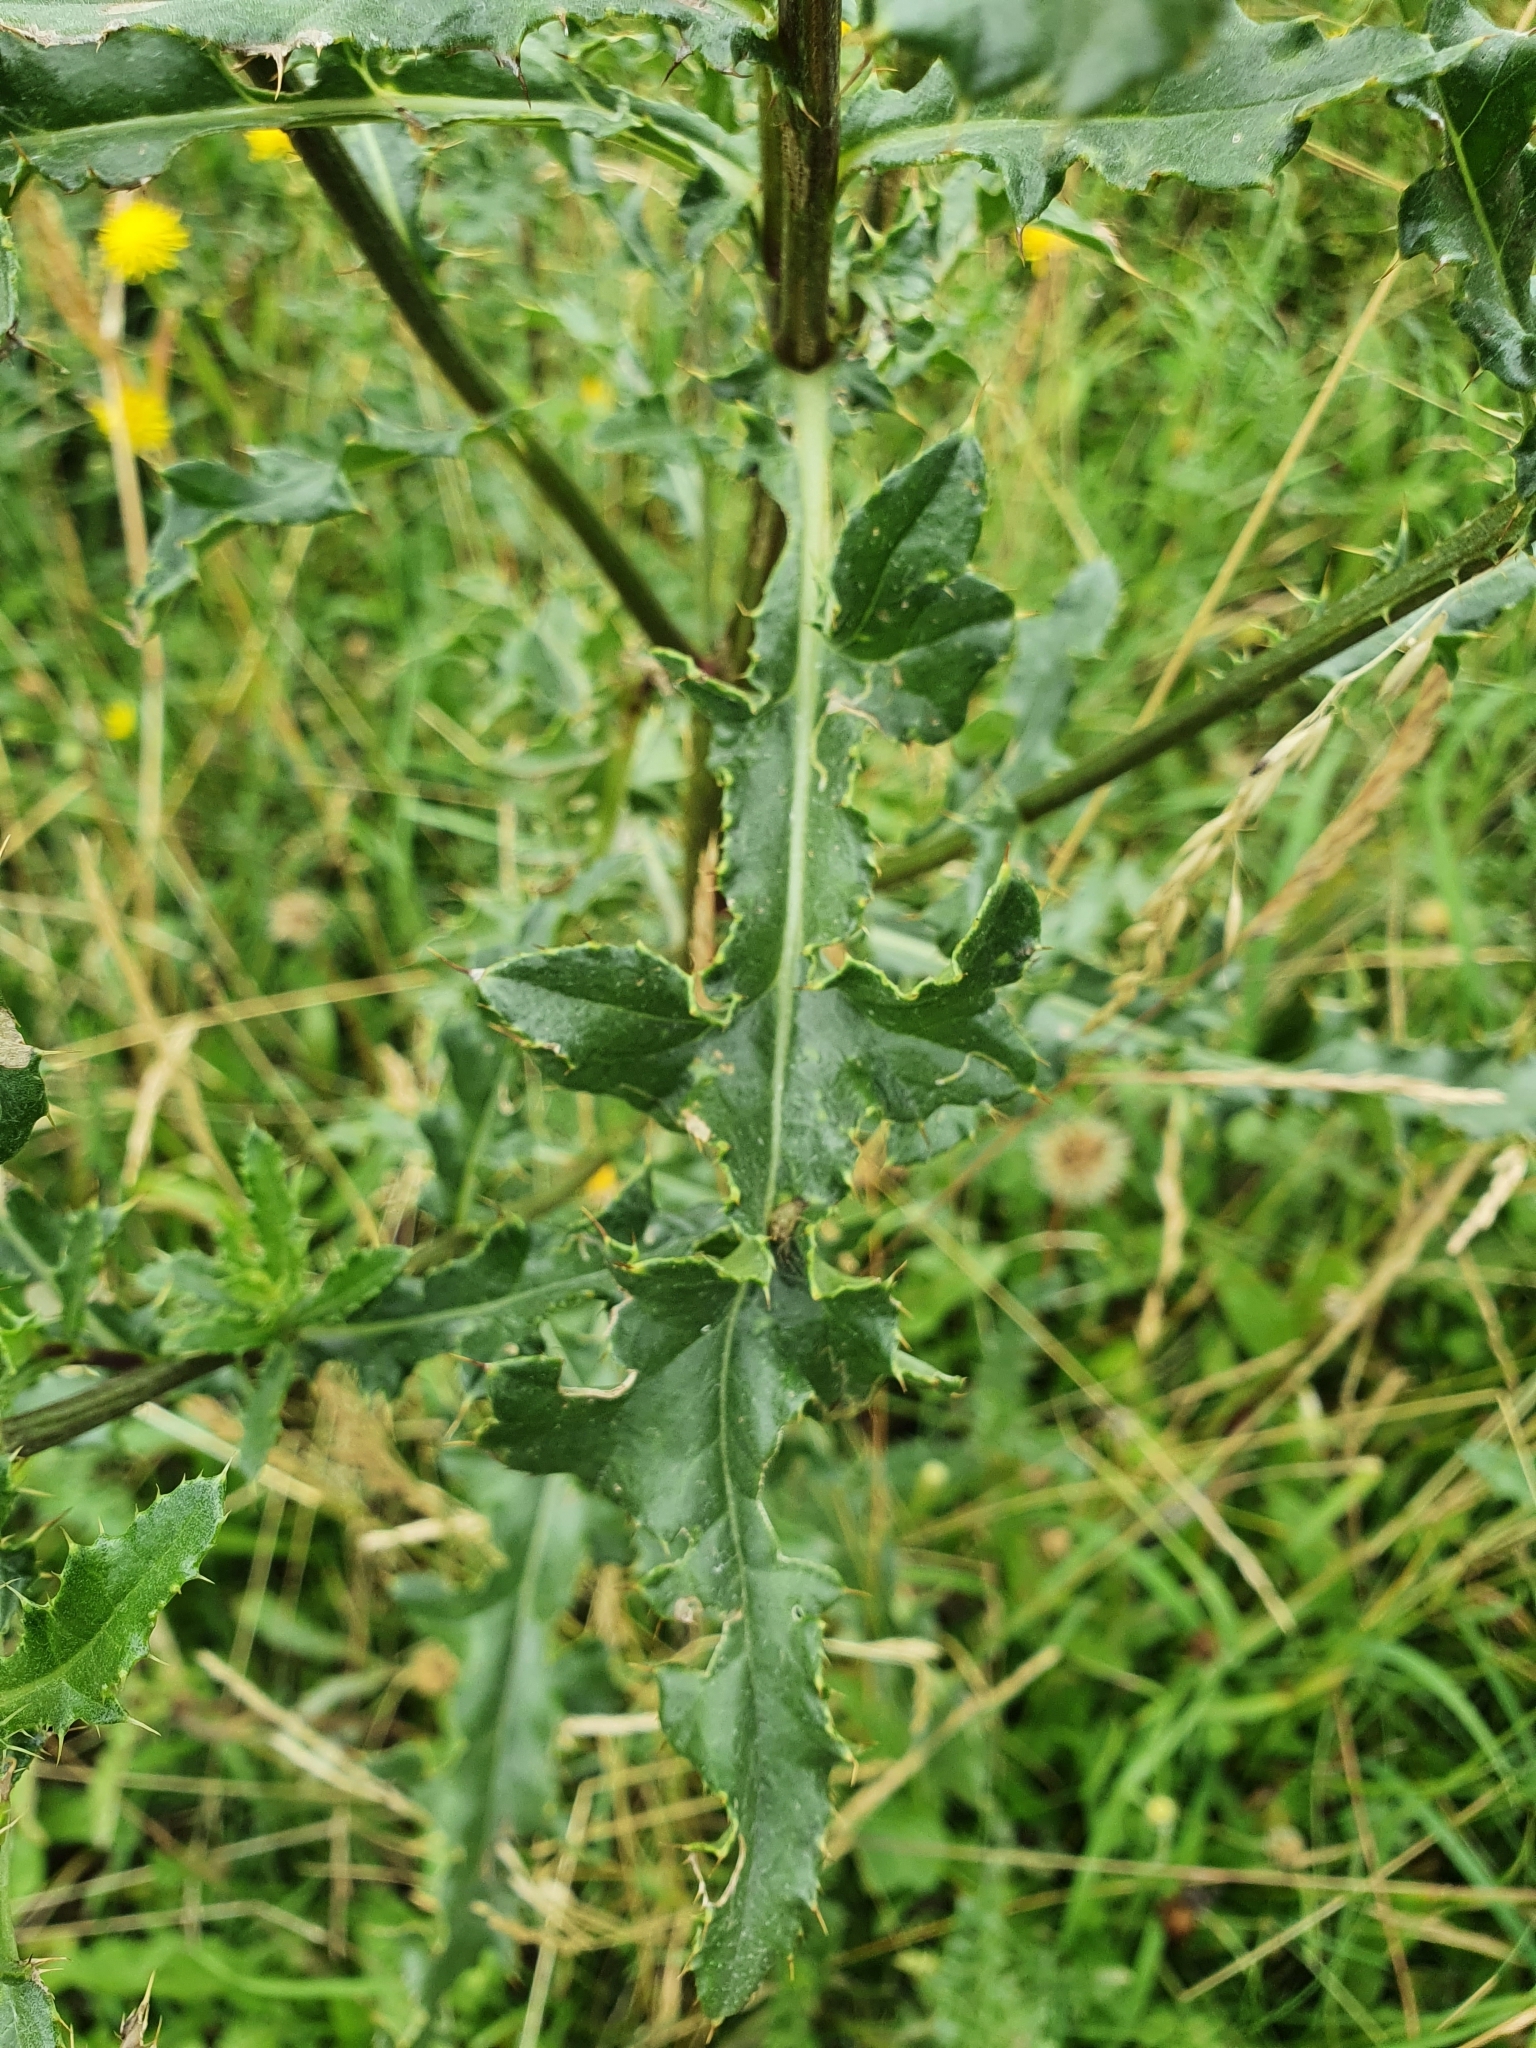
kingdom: Plantae
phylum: Tracheophyta
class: Magnoliopsida
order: Asterales
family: Asteraceae
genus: Cirsium
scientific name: Cirsium arvense
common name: Creeping thistle
